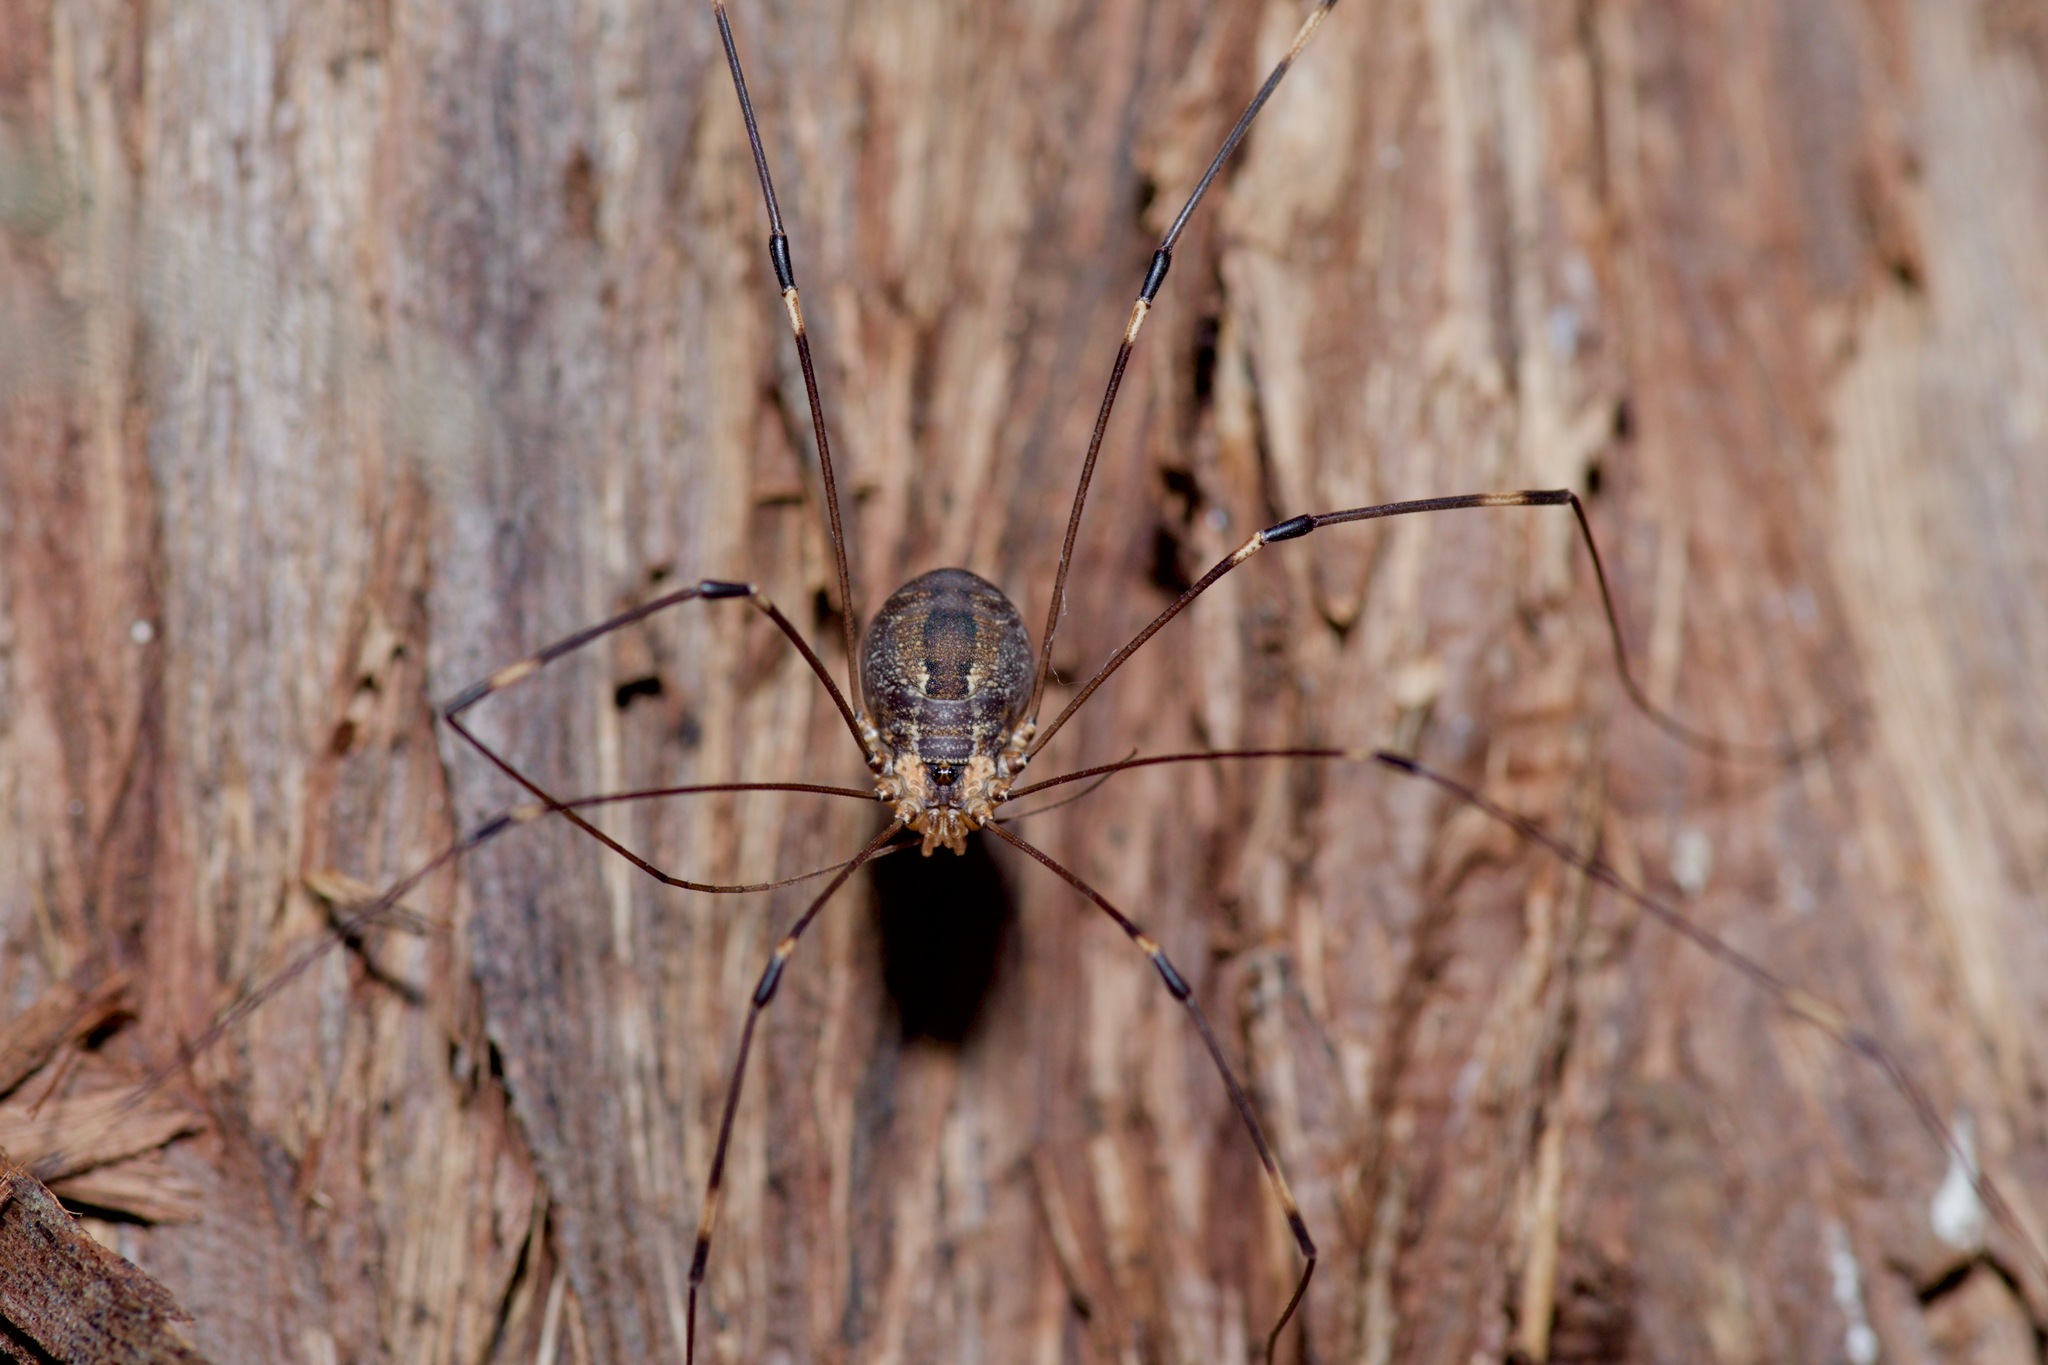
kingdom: Animalia
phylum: Arthropoda
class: Arachnida
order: Opiliones
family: Sclerosomatidae
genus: Leiobunum
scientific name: Leiobunum townsendi
